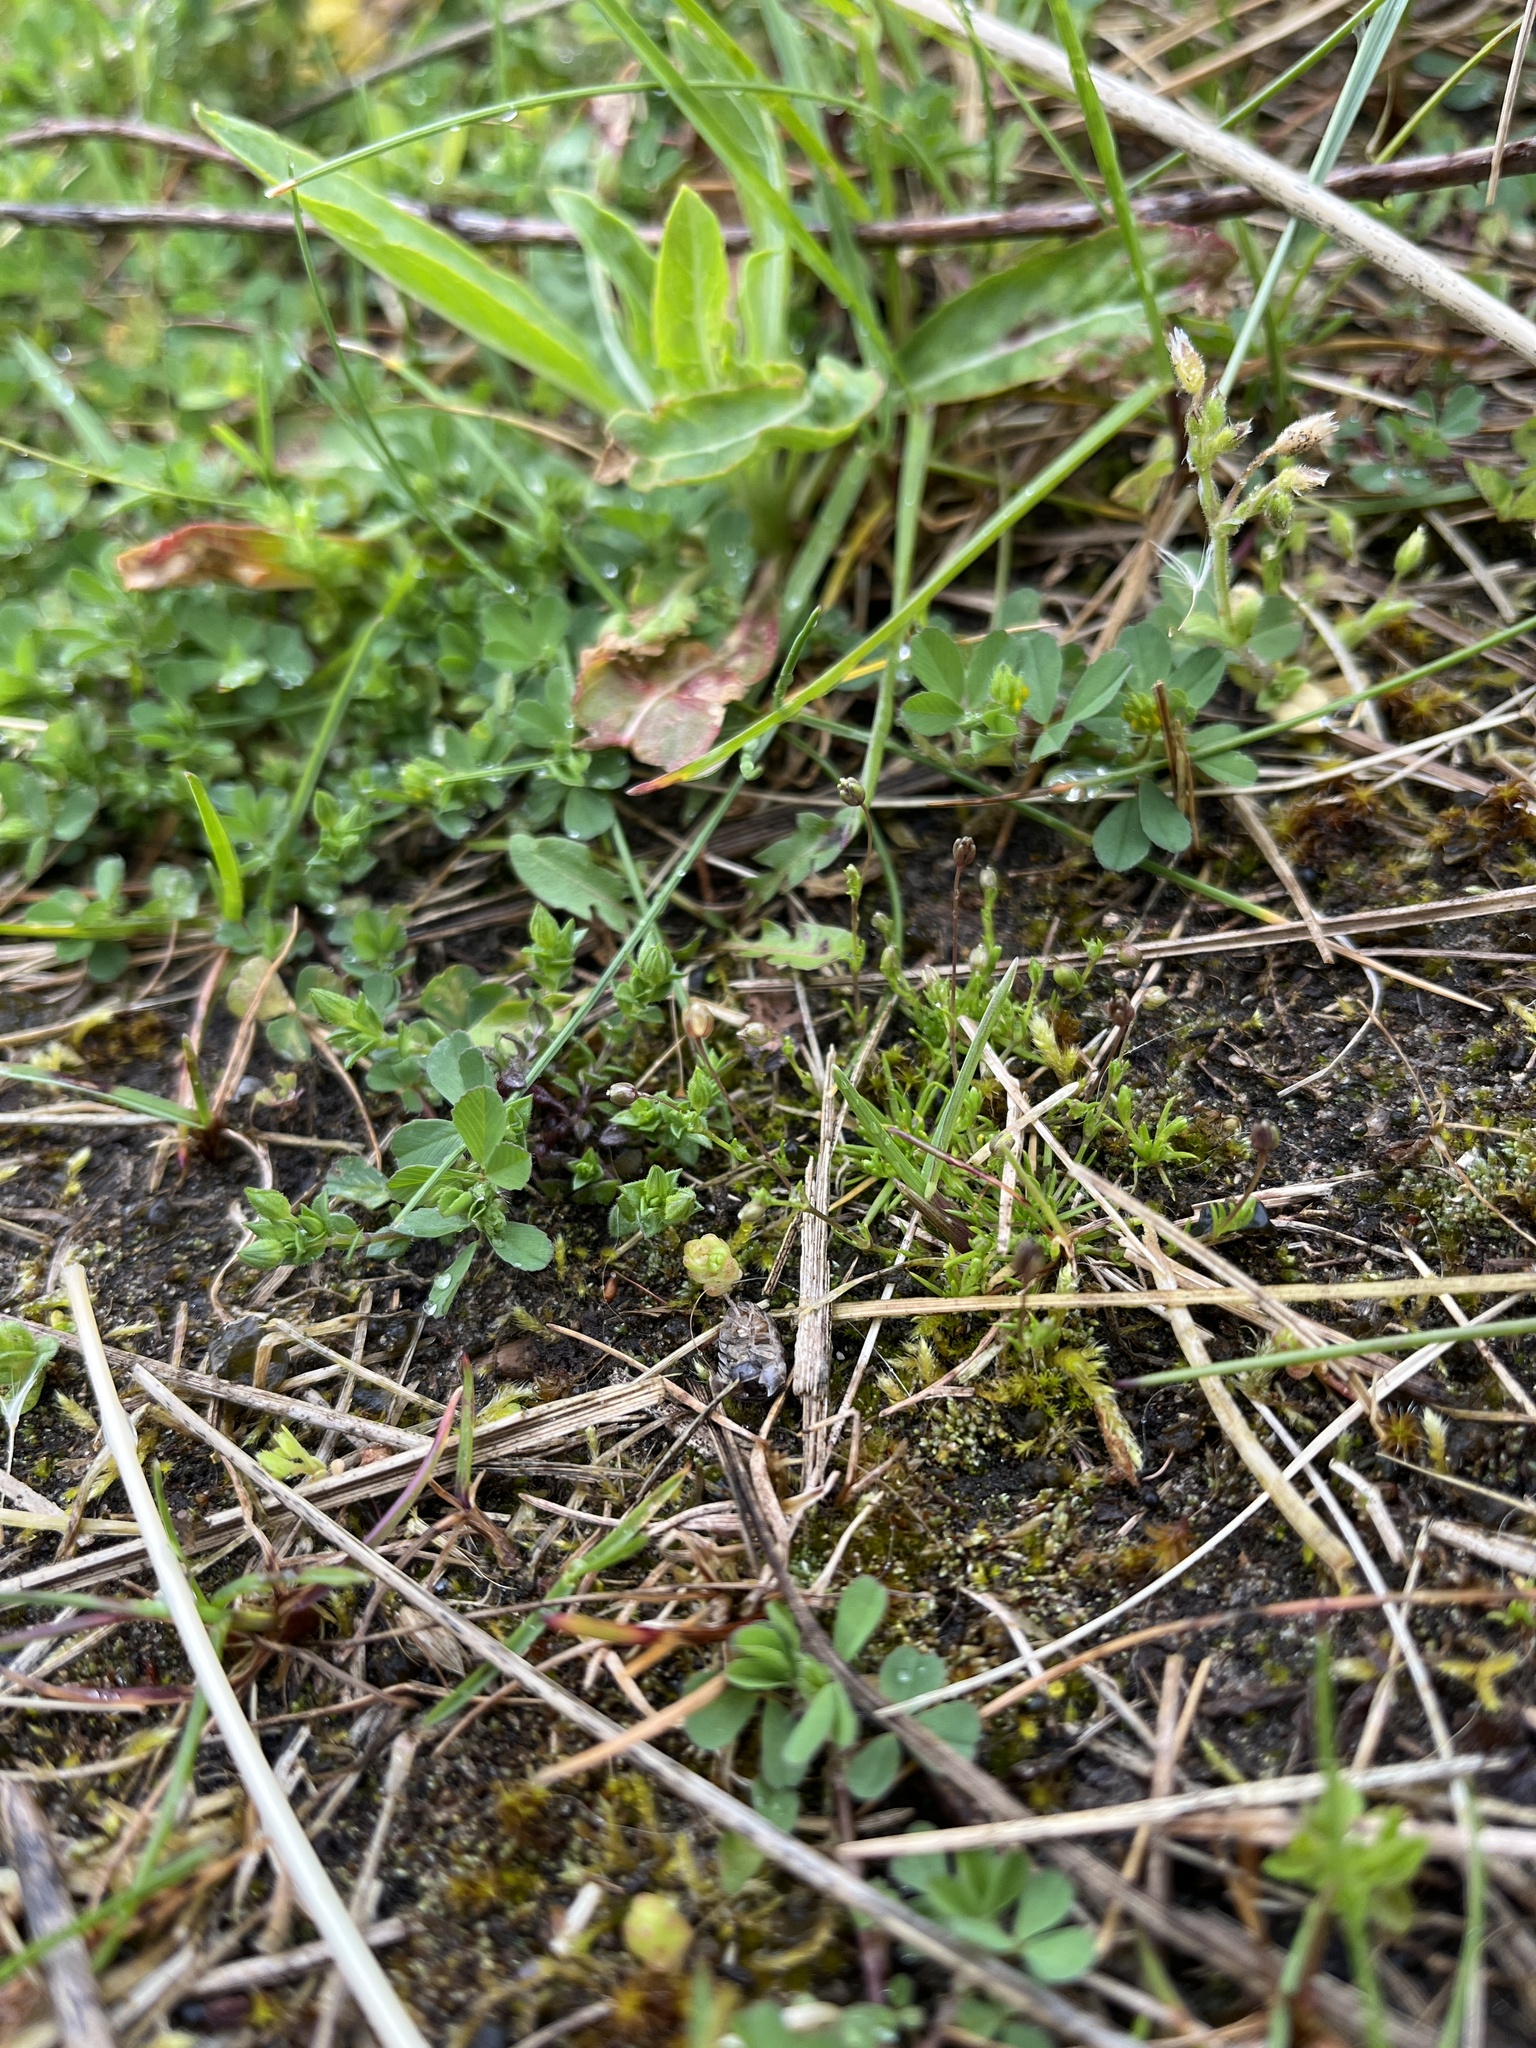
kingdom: Plantae
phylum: Tracheophyta
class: Magnoliopsida
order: Caryophyllales
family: Caryophyllaceae
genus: Sagina
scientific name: Sagina procumbens
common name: Procumbent pearlwort
